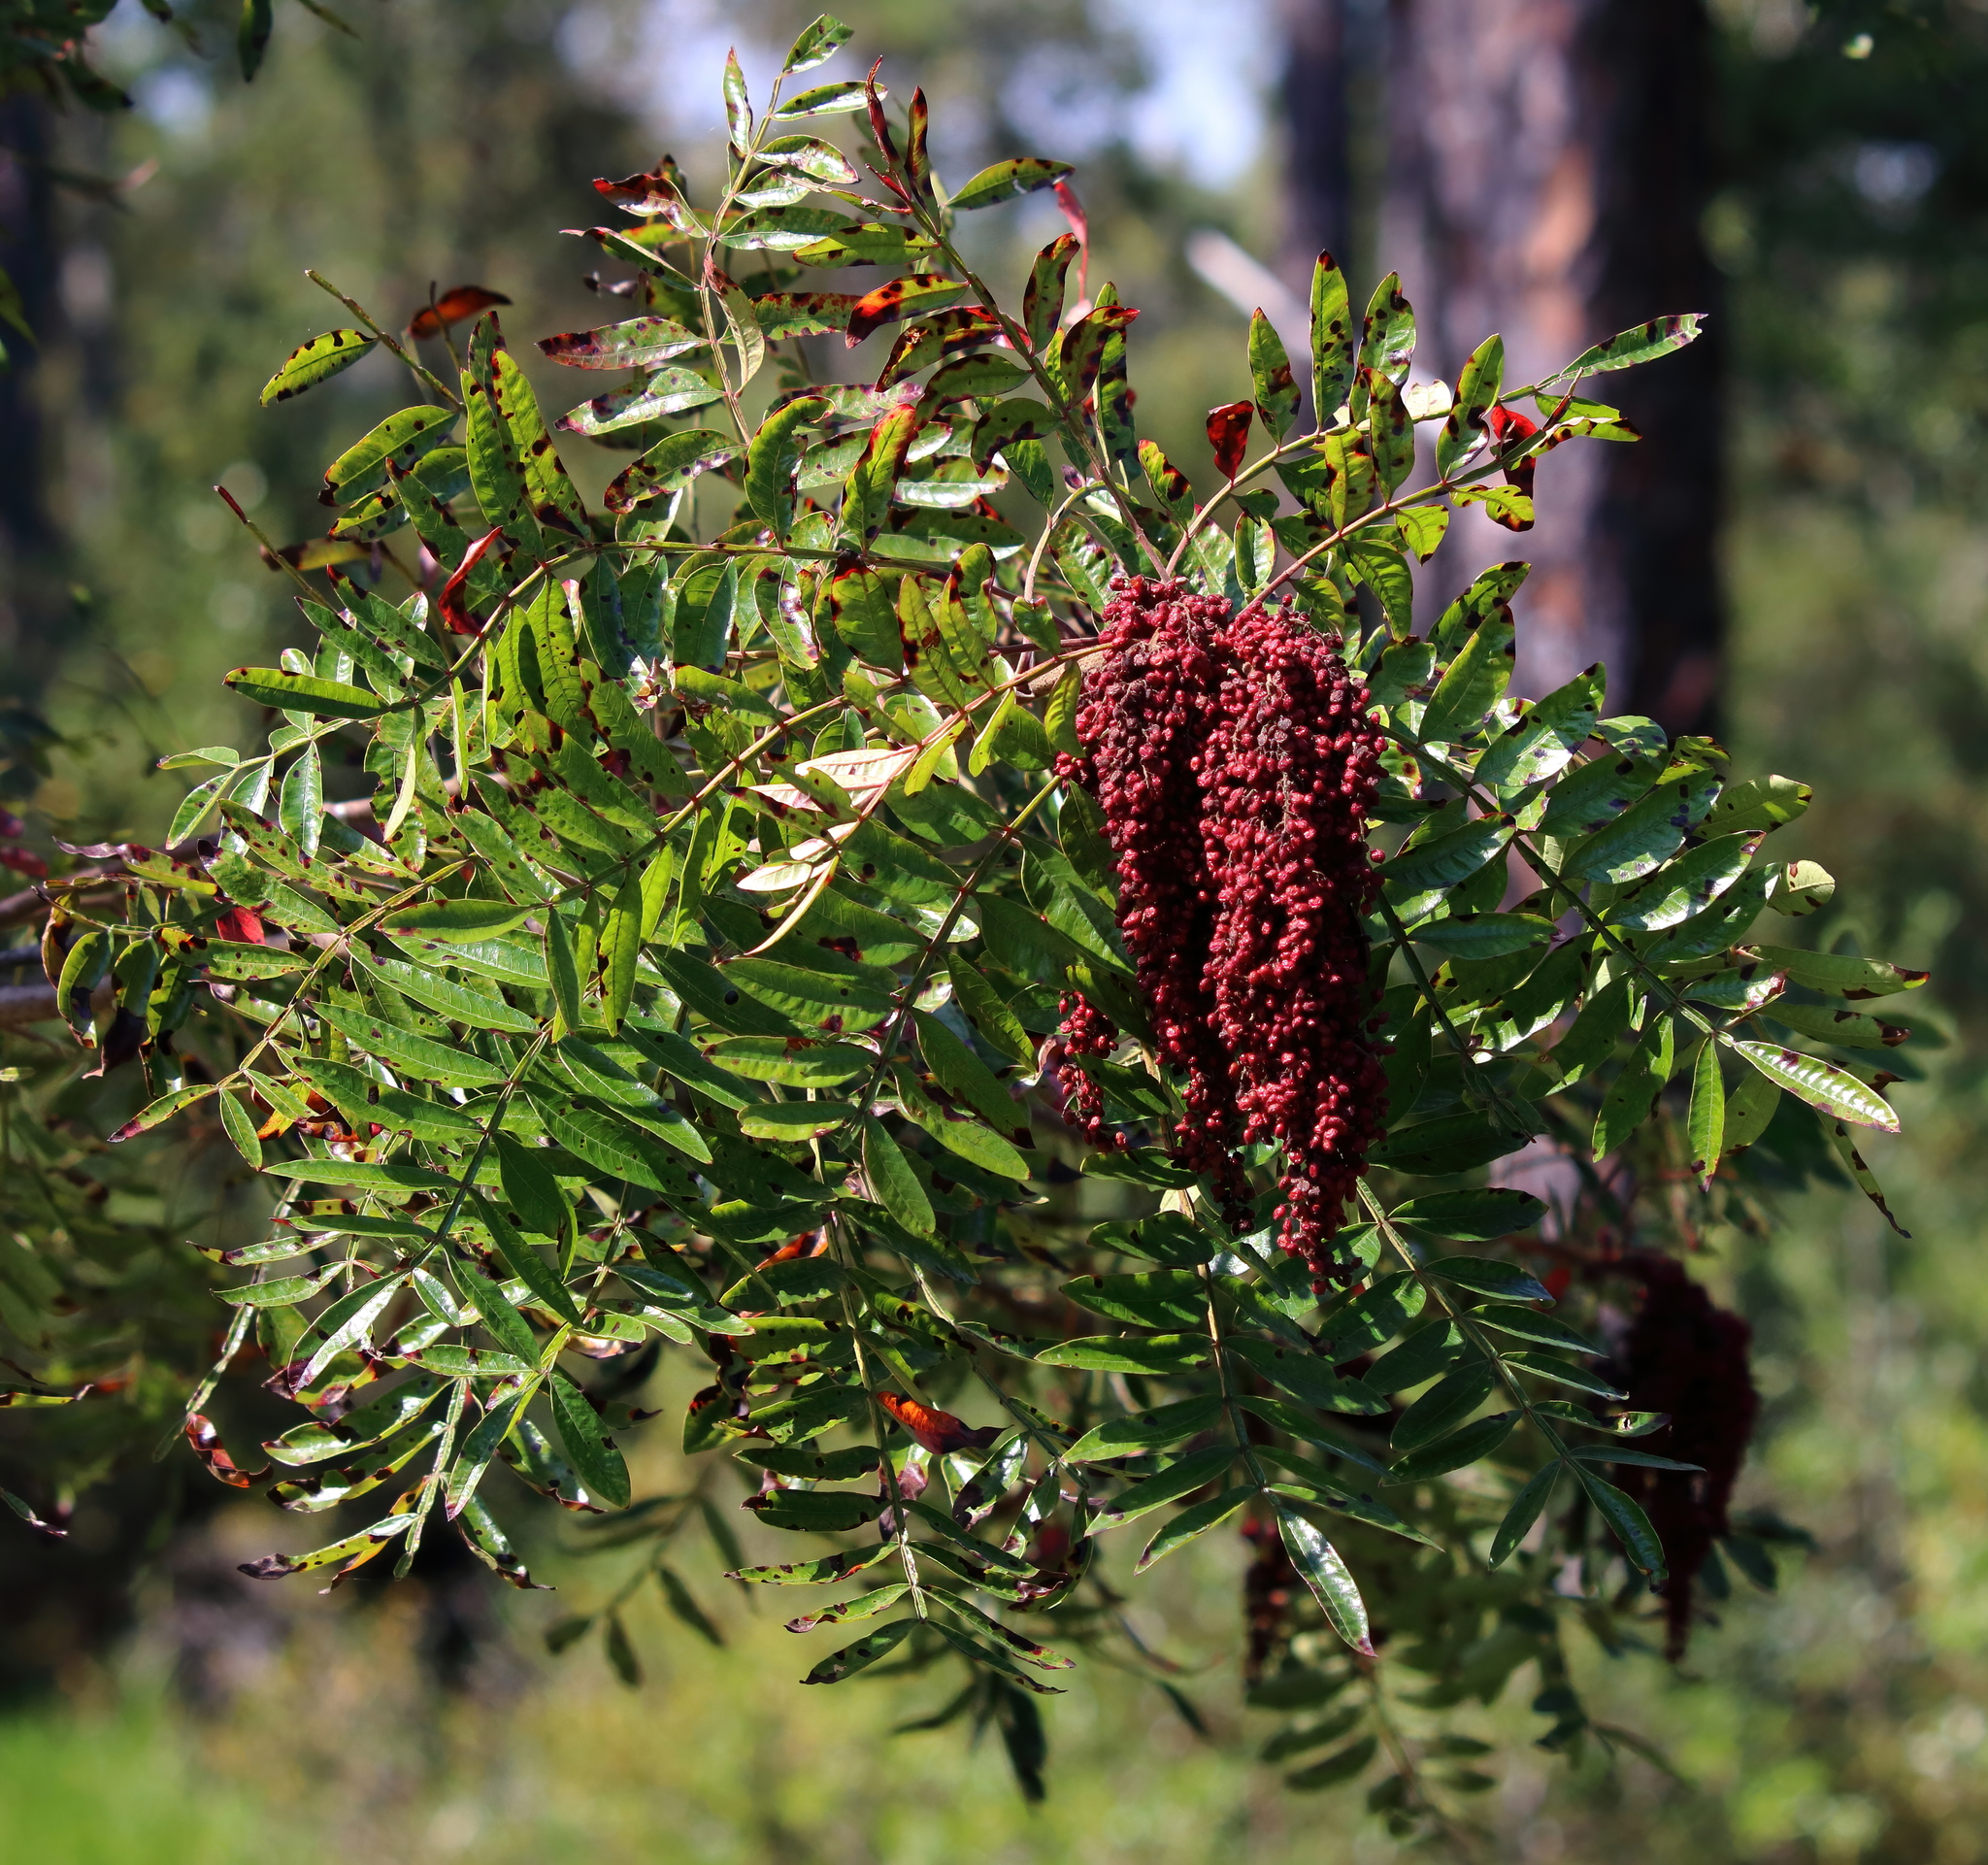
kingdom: Plantae
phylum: Tracheophyta
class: Magnoliopsida
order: Sapindales
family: Anacardiaceae
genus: Rhus
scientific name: Rhus copallina
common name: Shining sumac
